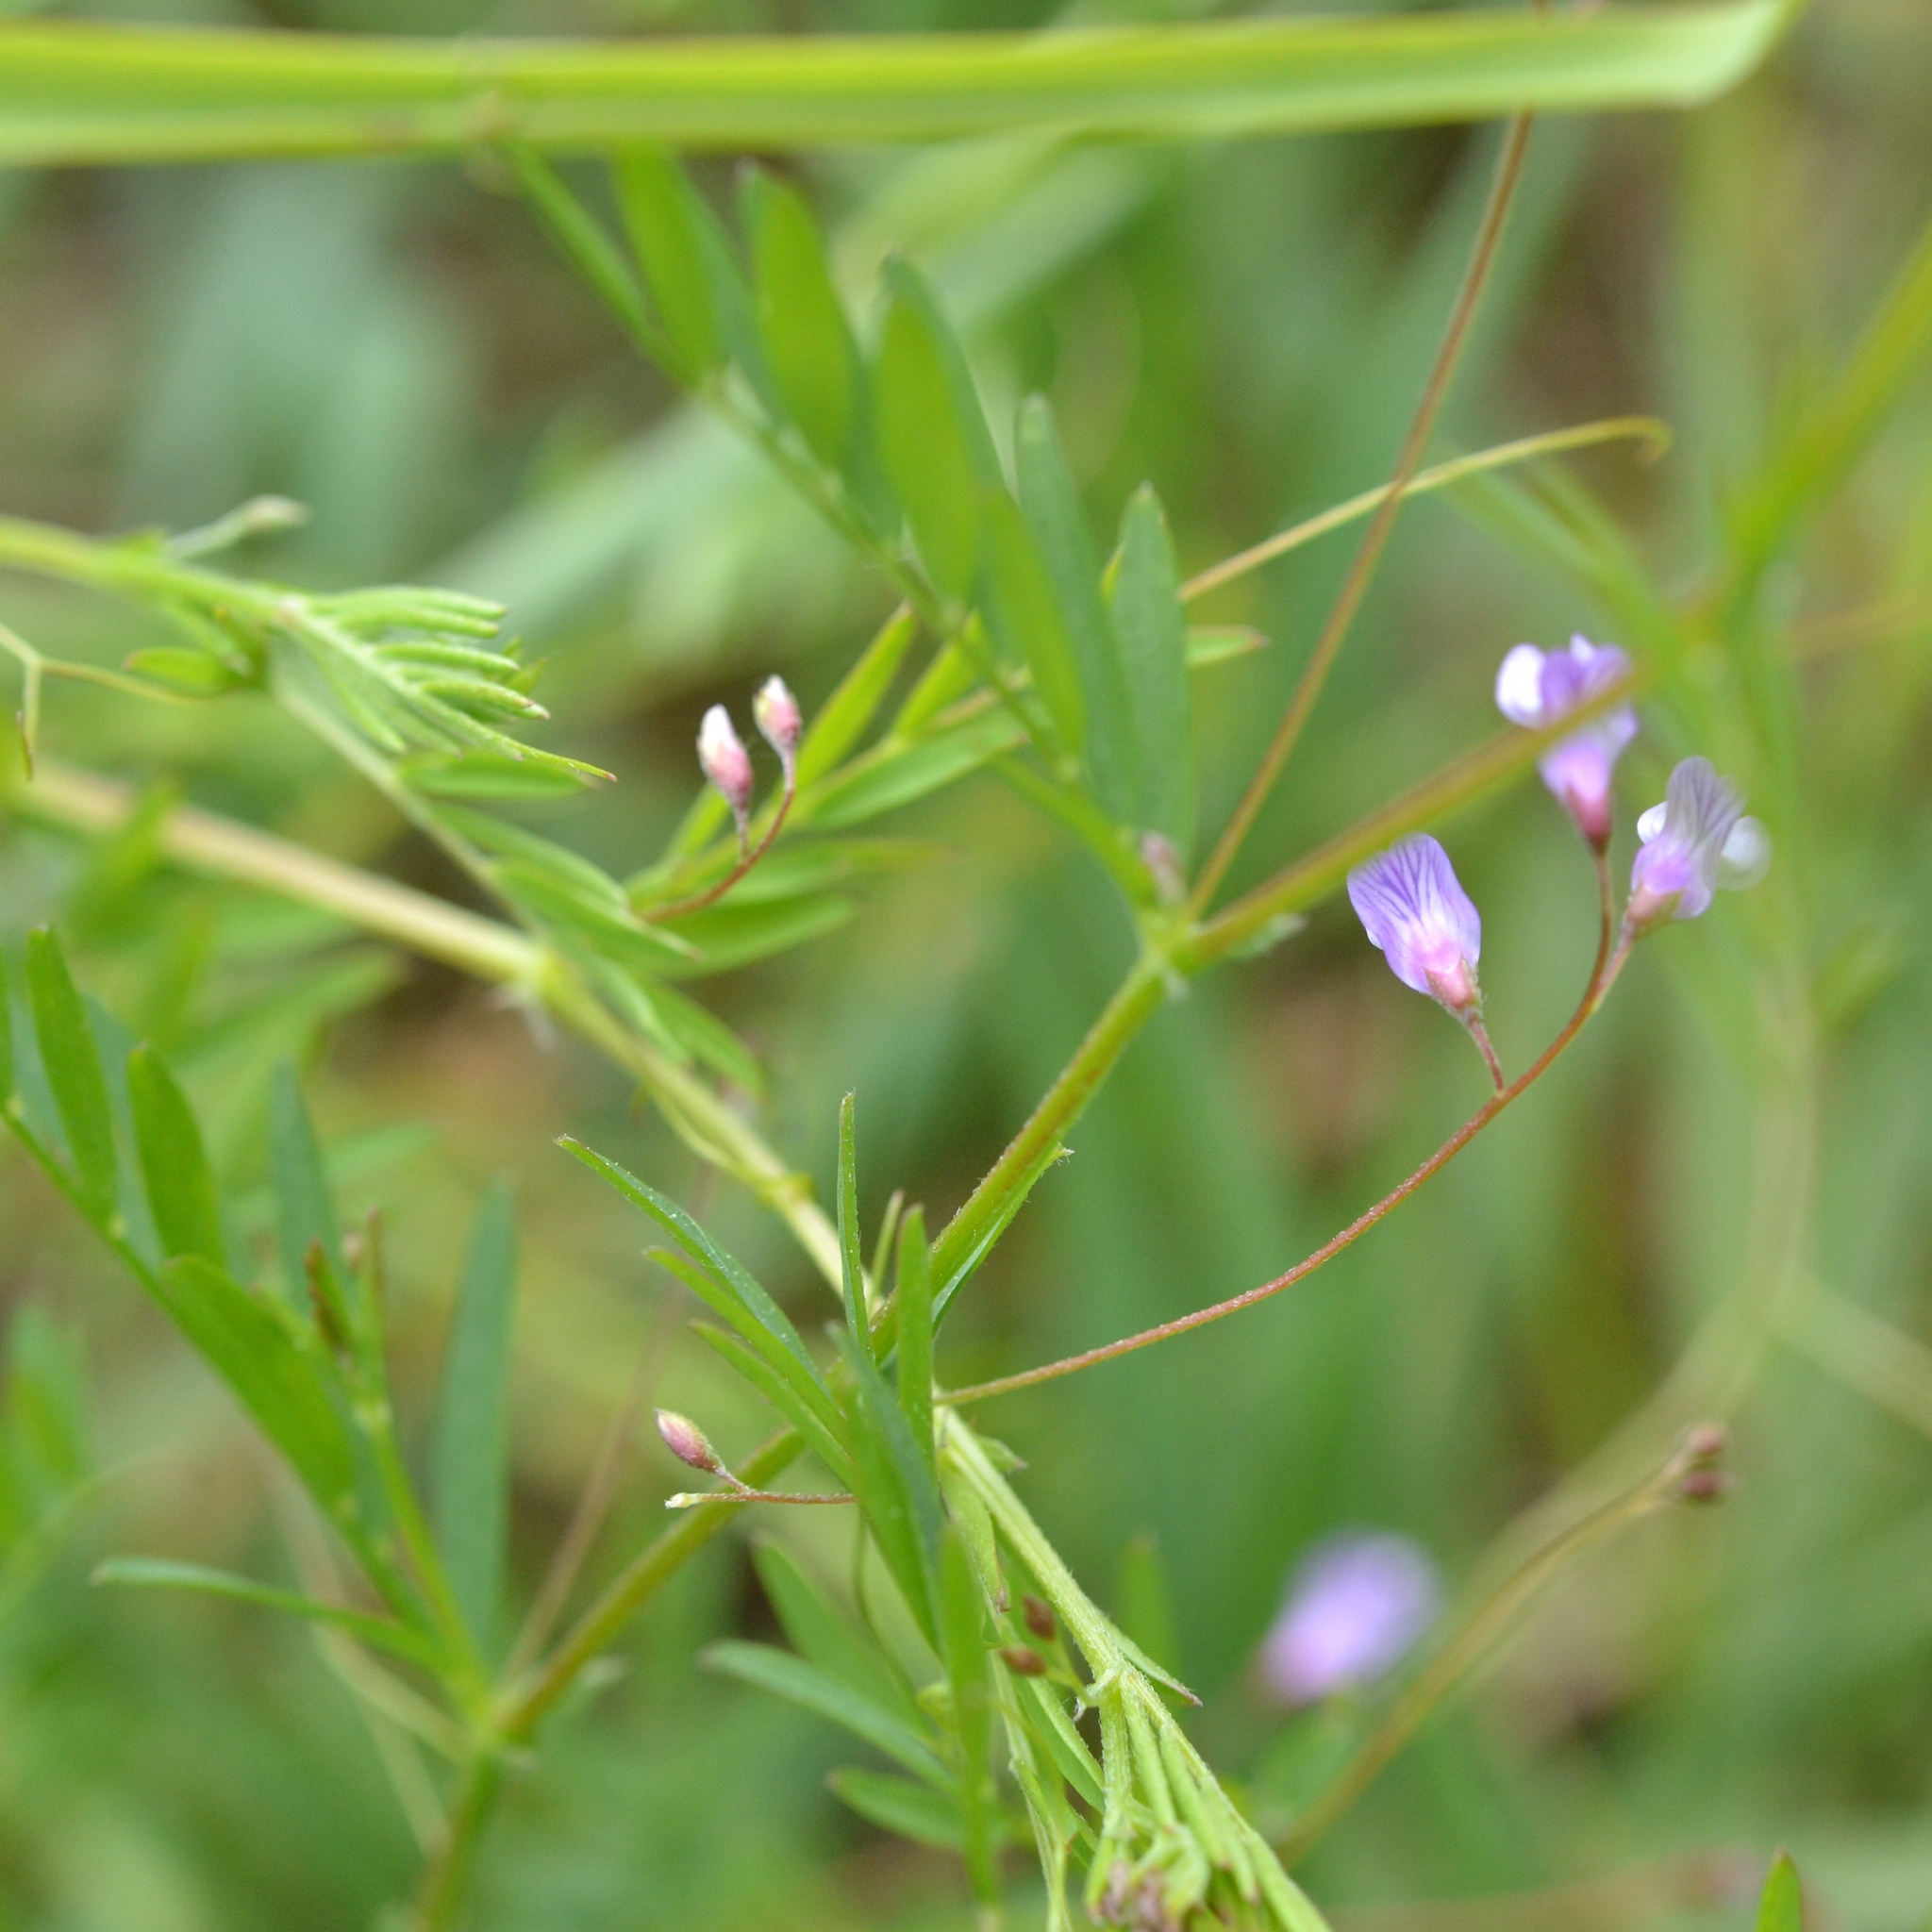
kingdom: Plantae
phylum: Tracheophyta
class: Magnoliopsida
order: Fabales
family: Fabaceae
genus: Vicia
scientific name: Vicia tetrasperma
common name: Smooth tare
